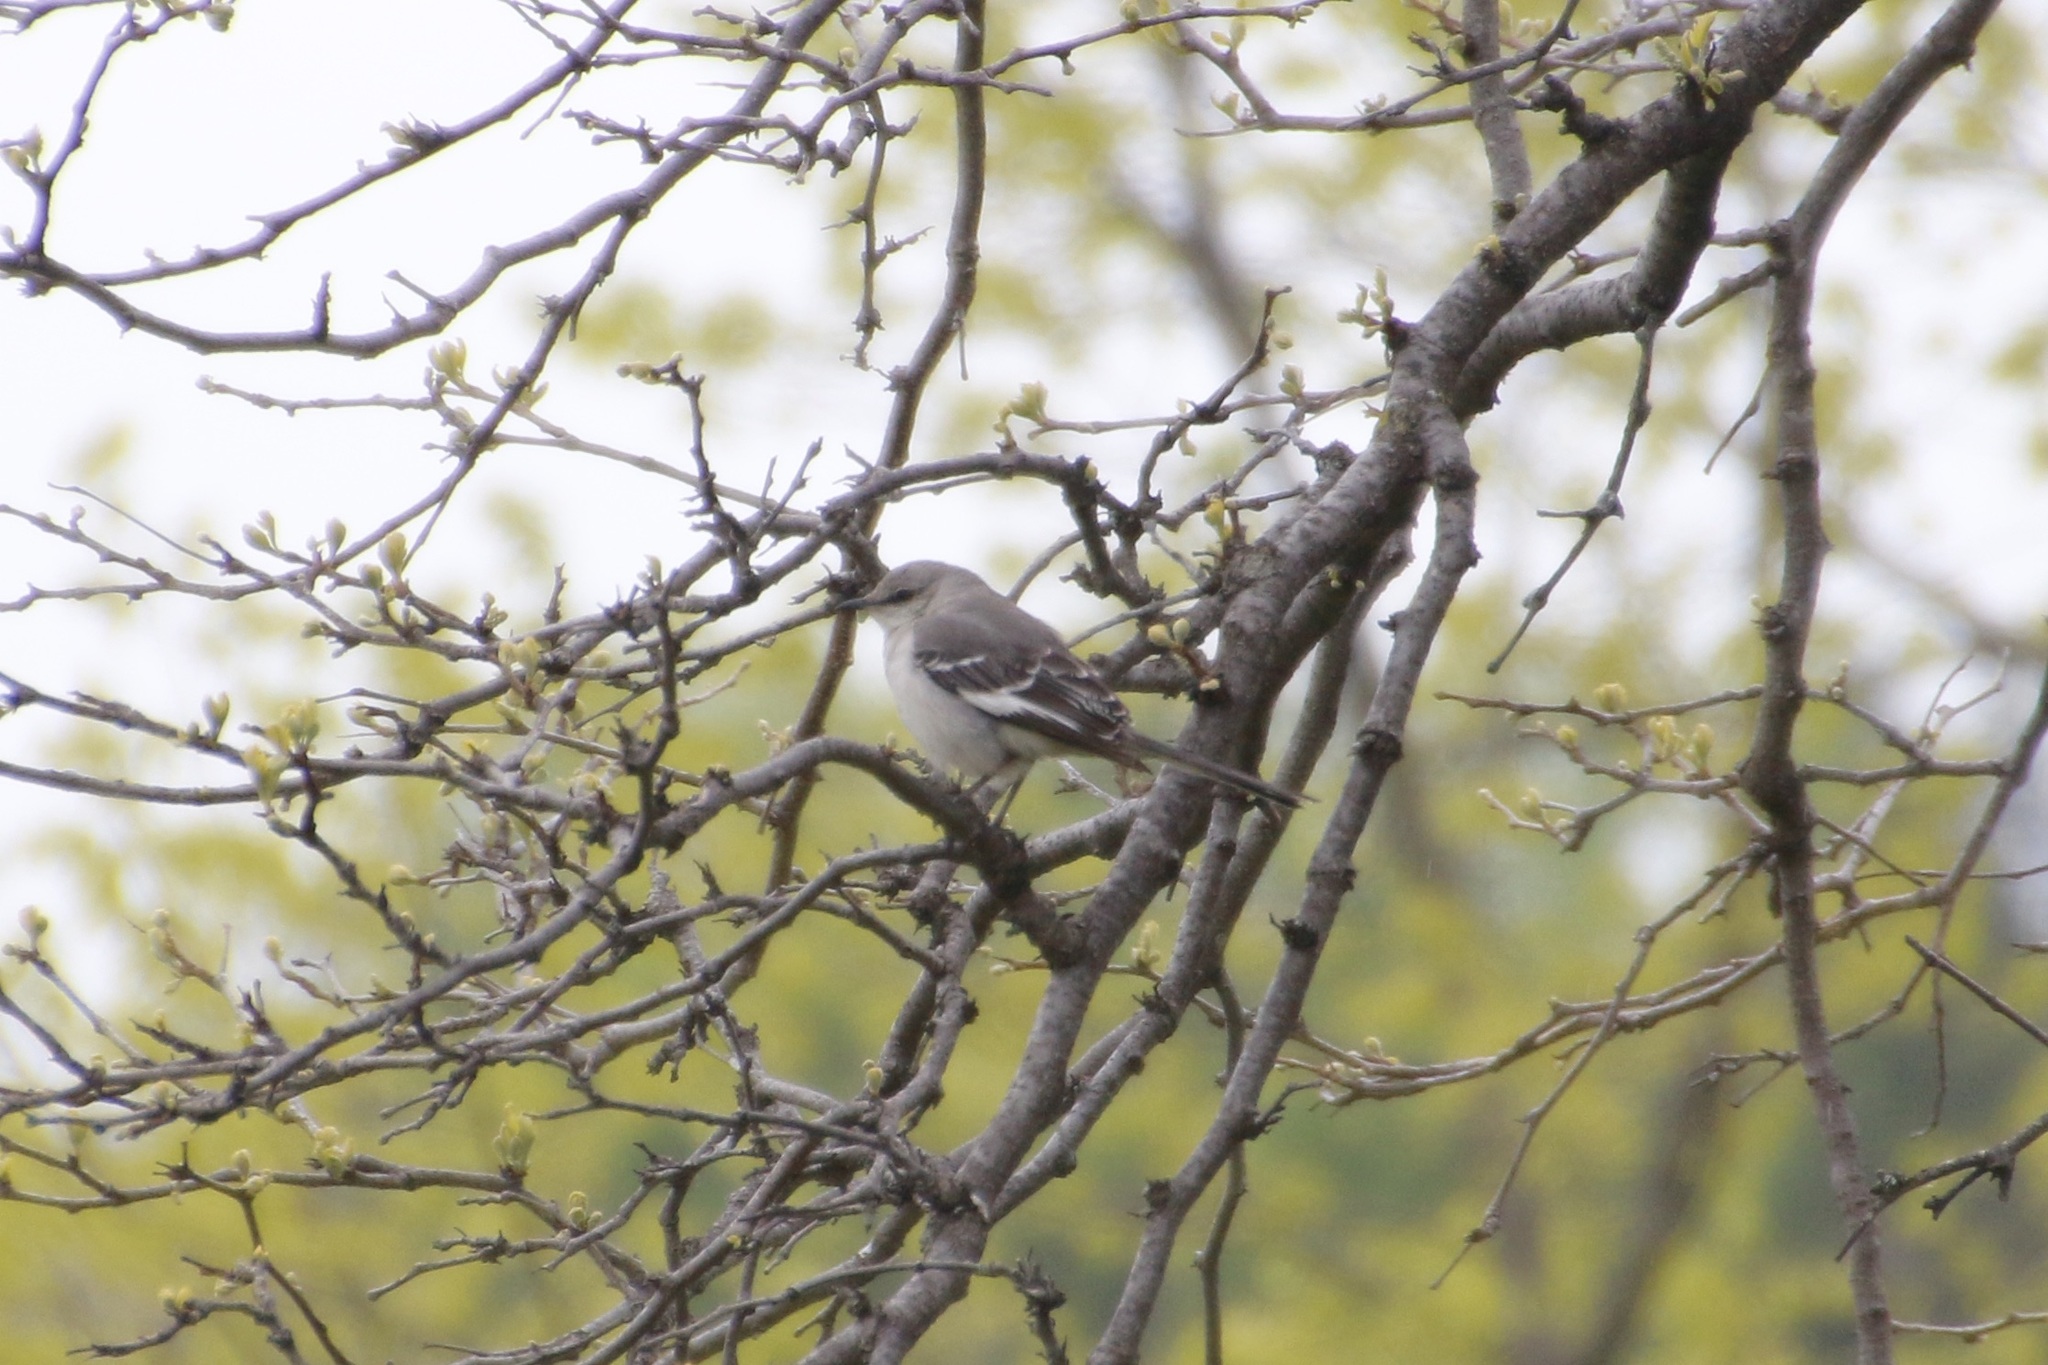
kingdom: Animalia
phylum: Chordata
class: Aves
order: Passeriformes
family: Mimidae
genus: Mimus
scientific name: Mimus polyglottos
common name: Northern mockingbird
